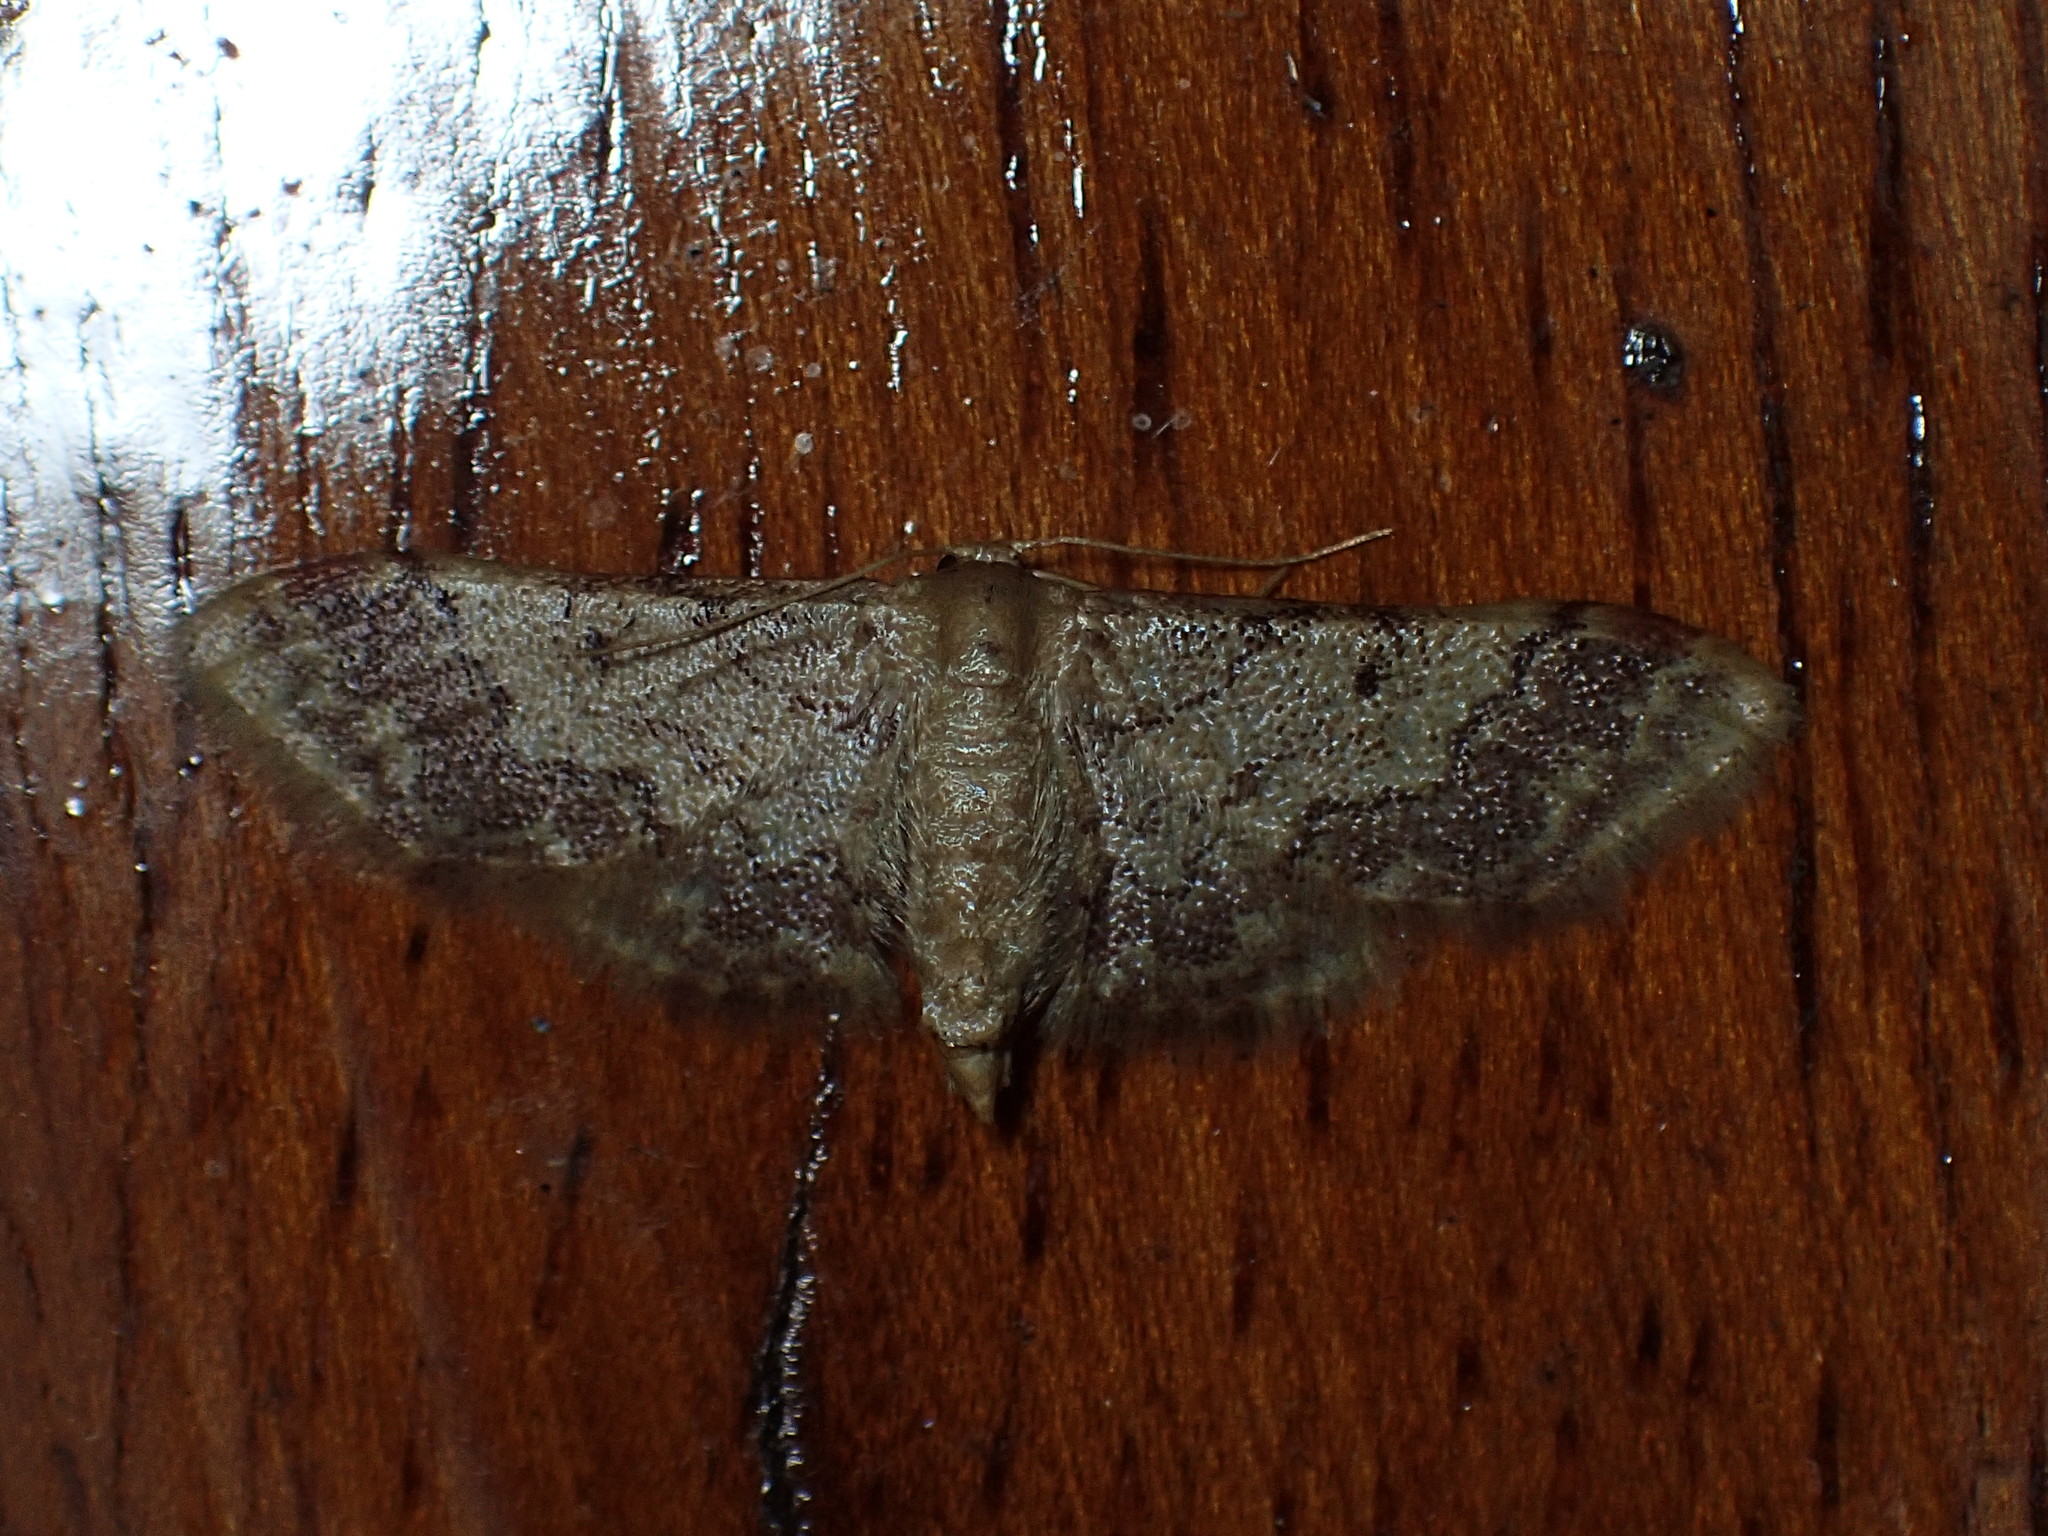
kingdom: Animalia
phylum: Arthropoda
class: Insecta
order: Lepidoptera
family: Geometridae
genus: Idaea
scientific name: Idaea furciferata
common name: Notch-winged wave
